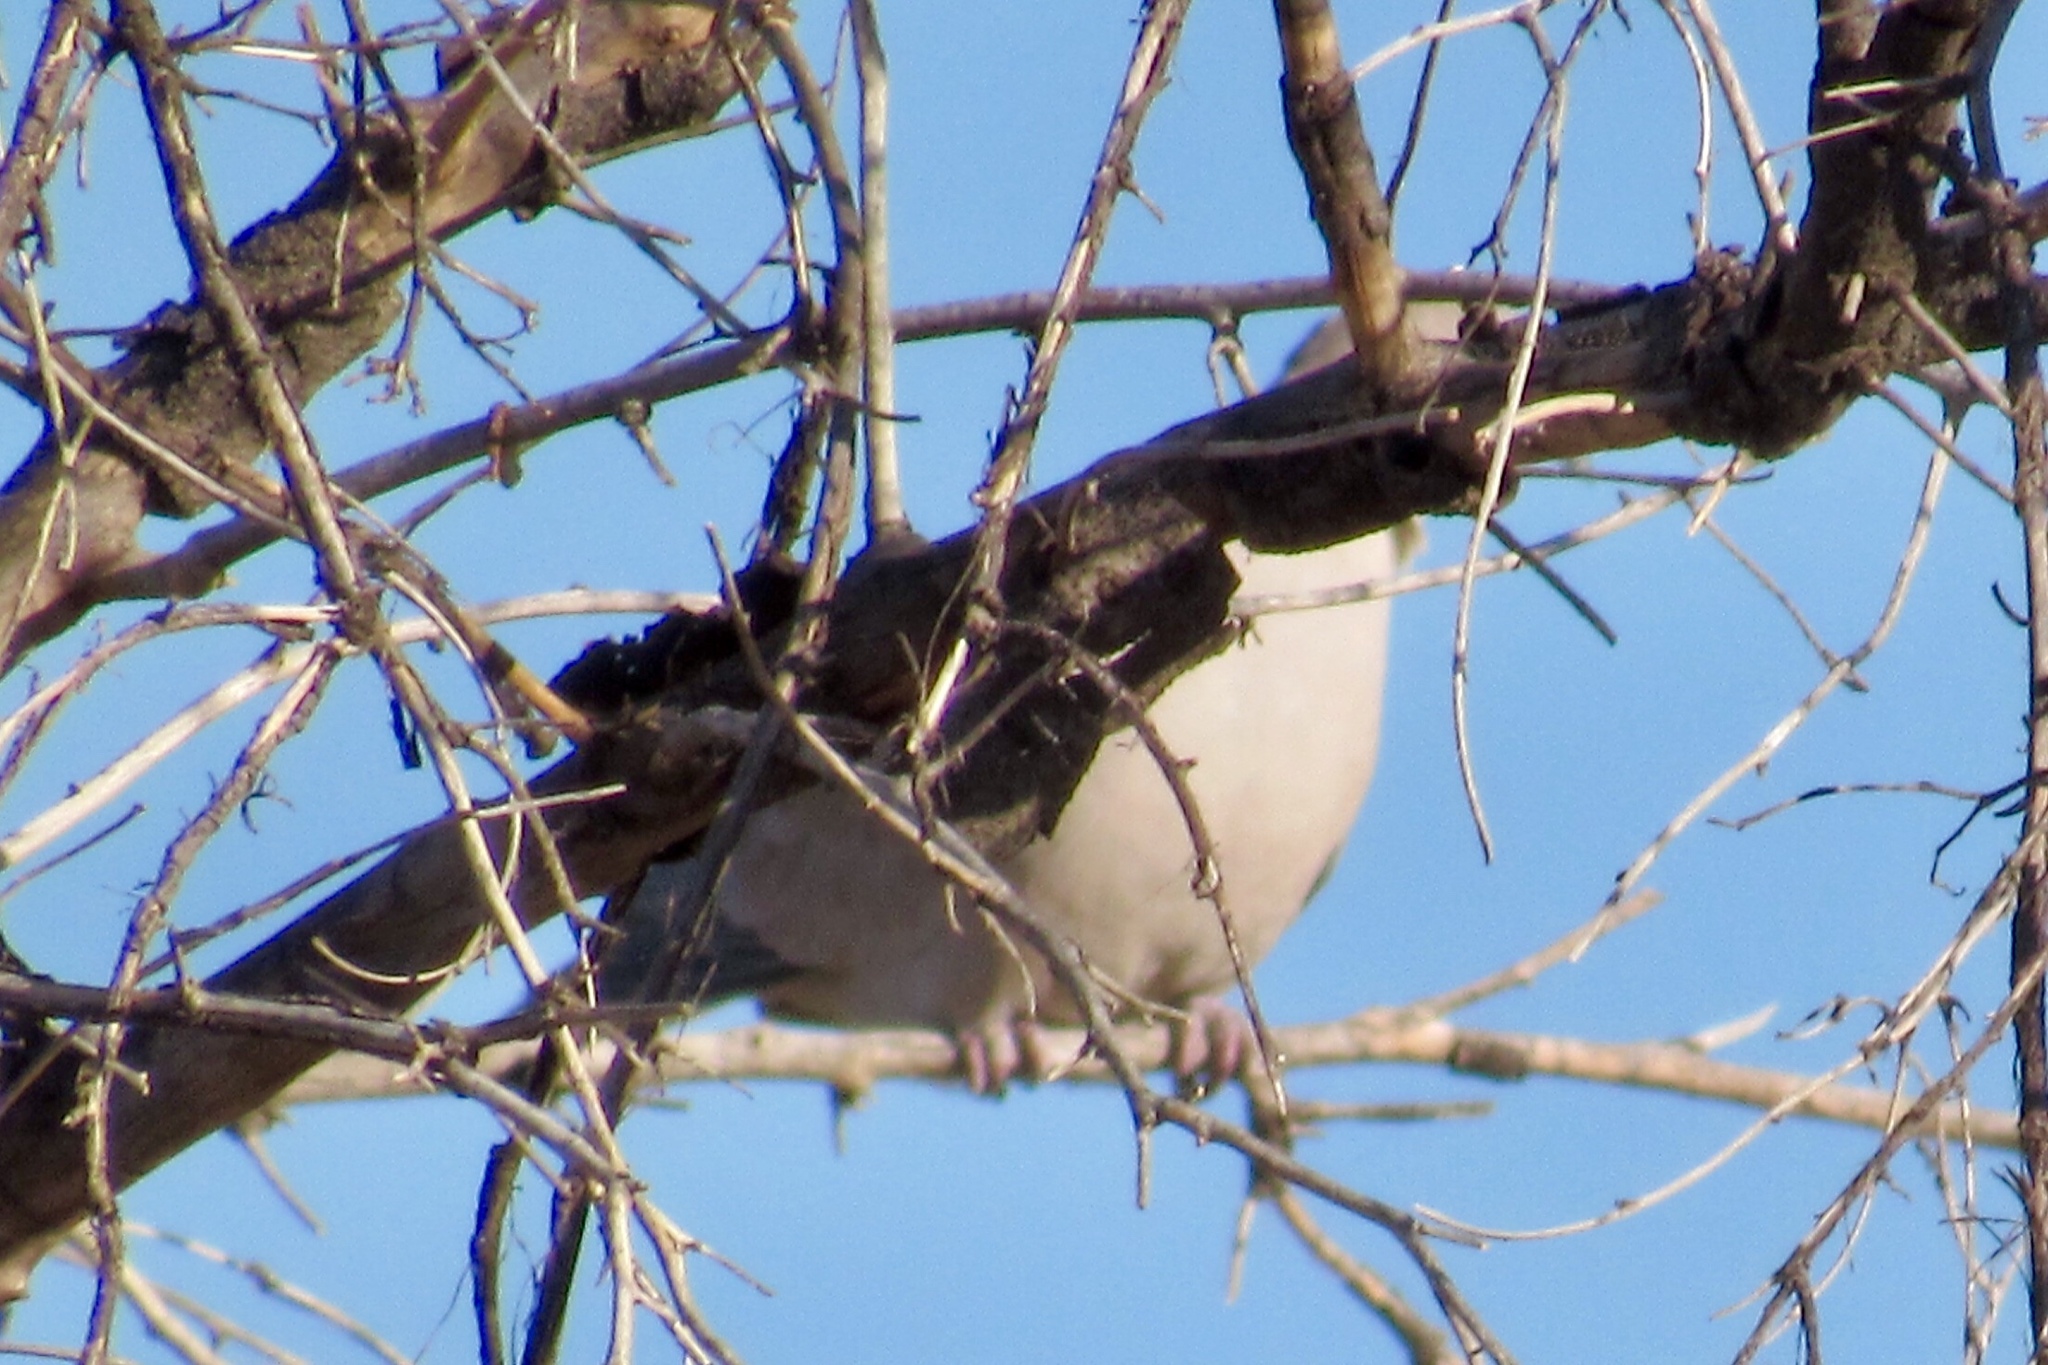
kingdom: Animalia
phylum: Chordata
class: Aves
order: Columbiformes
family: Columbidae
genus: Streptopelia
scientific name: Streptopelia decaocto
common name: Eurasian collared dove
